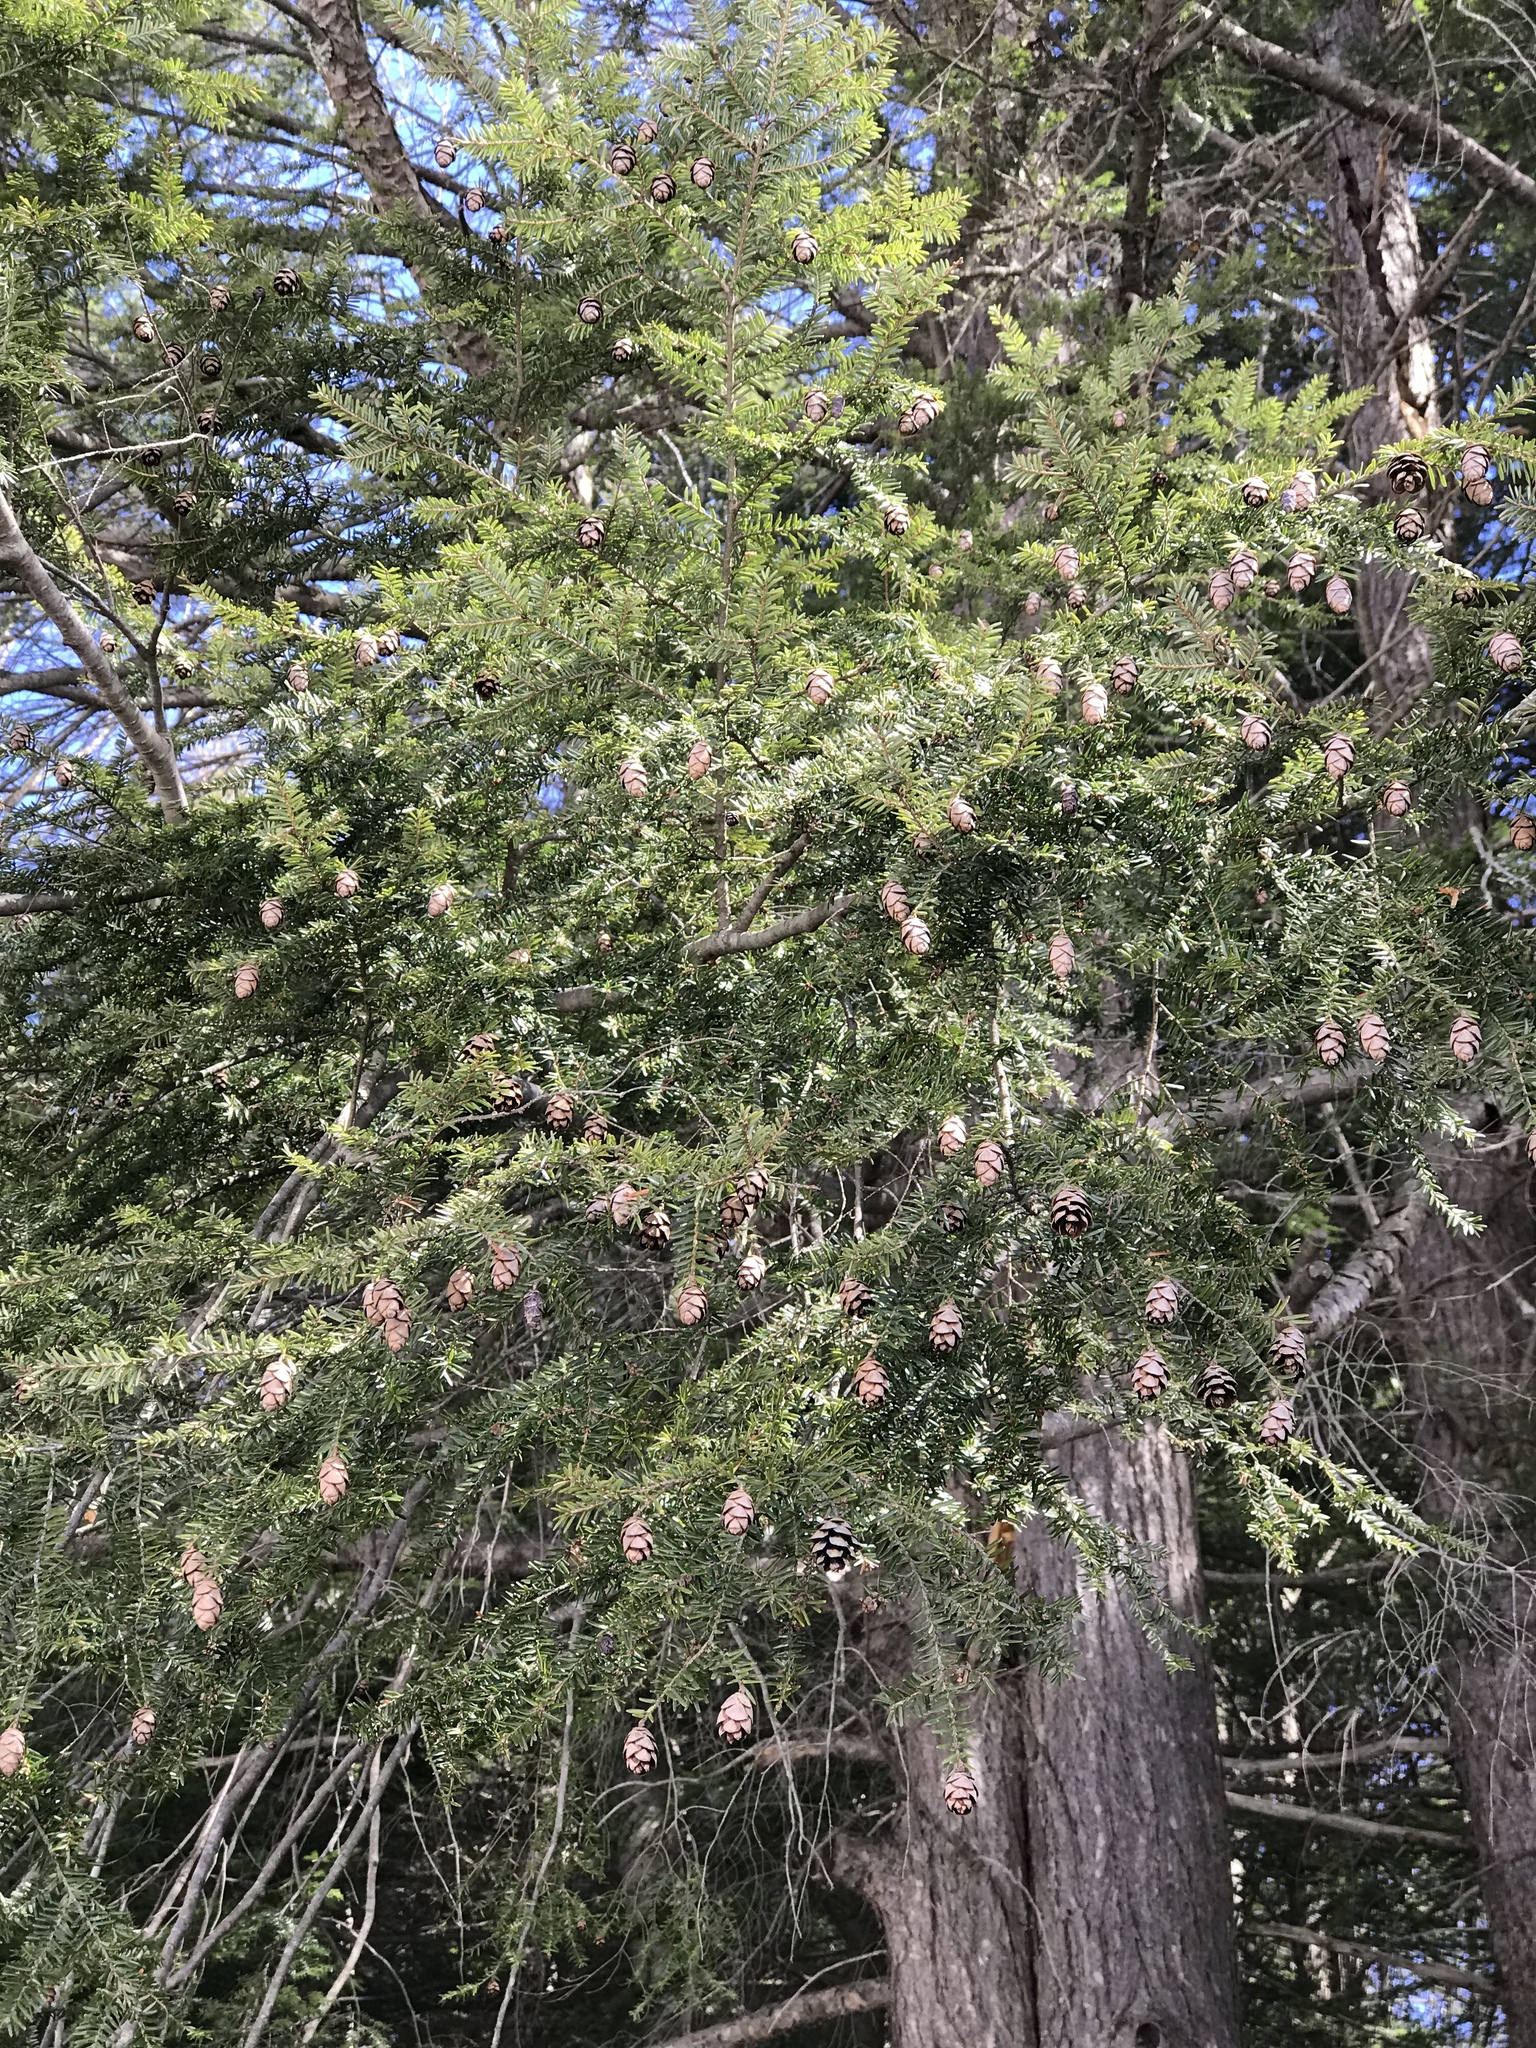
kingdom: Plantae
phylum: Tracheophyta
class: Pinopsida
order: Pinales
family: Pinaceae
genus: Tsuga
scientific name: Tsuga canadensis
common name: Eastern hemlock
